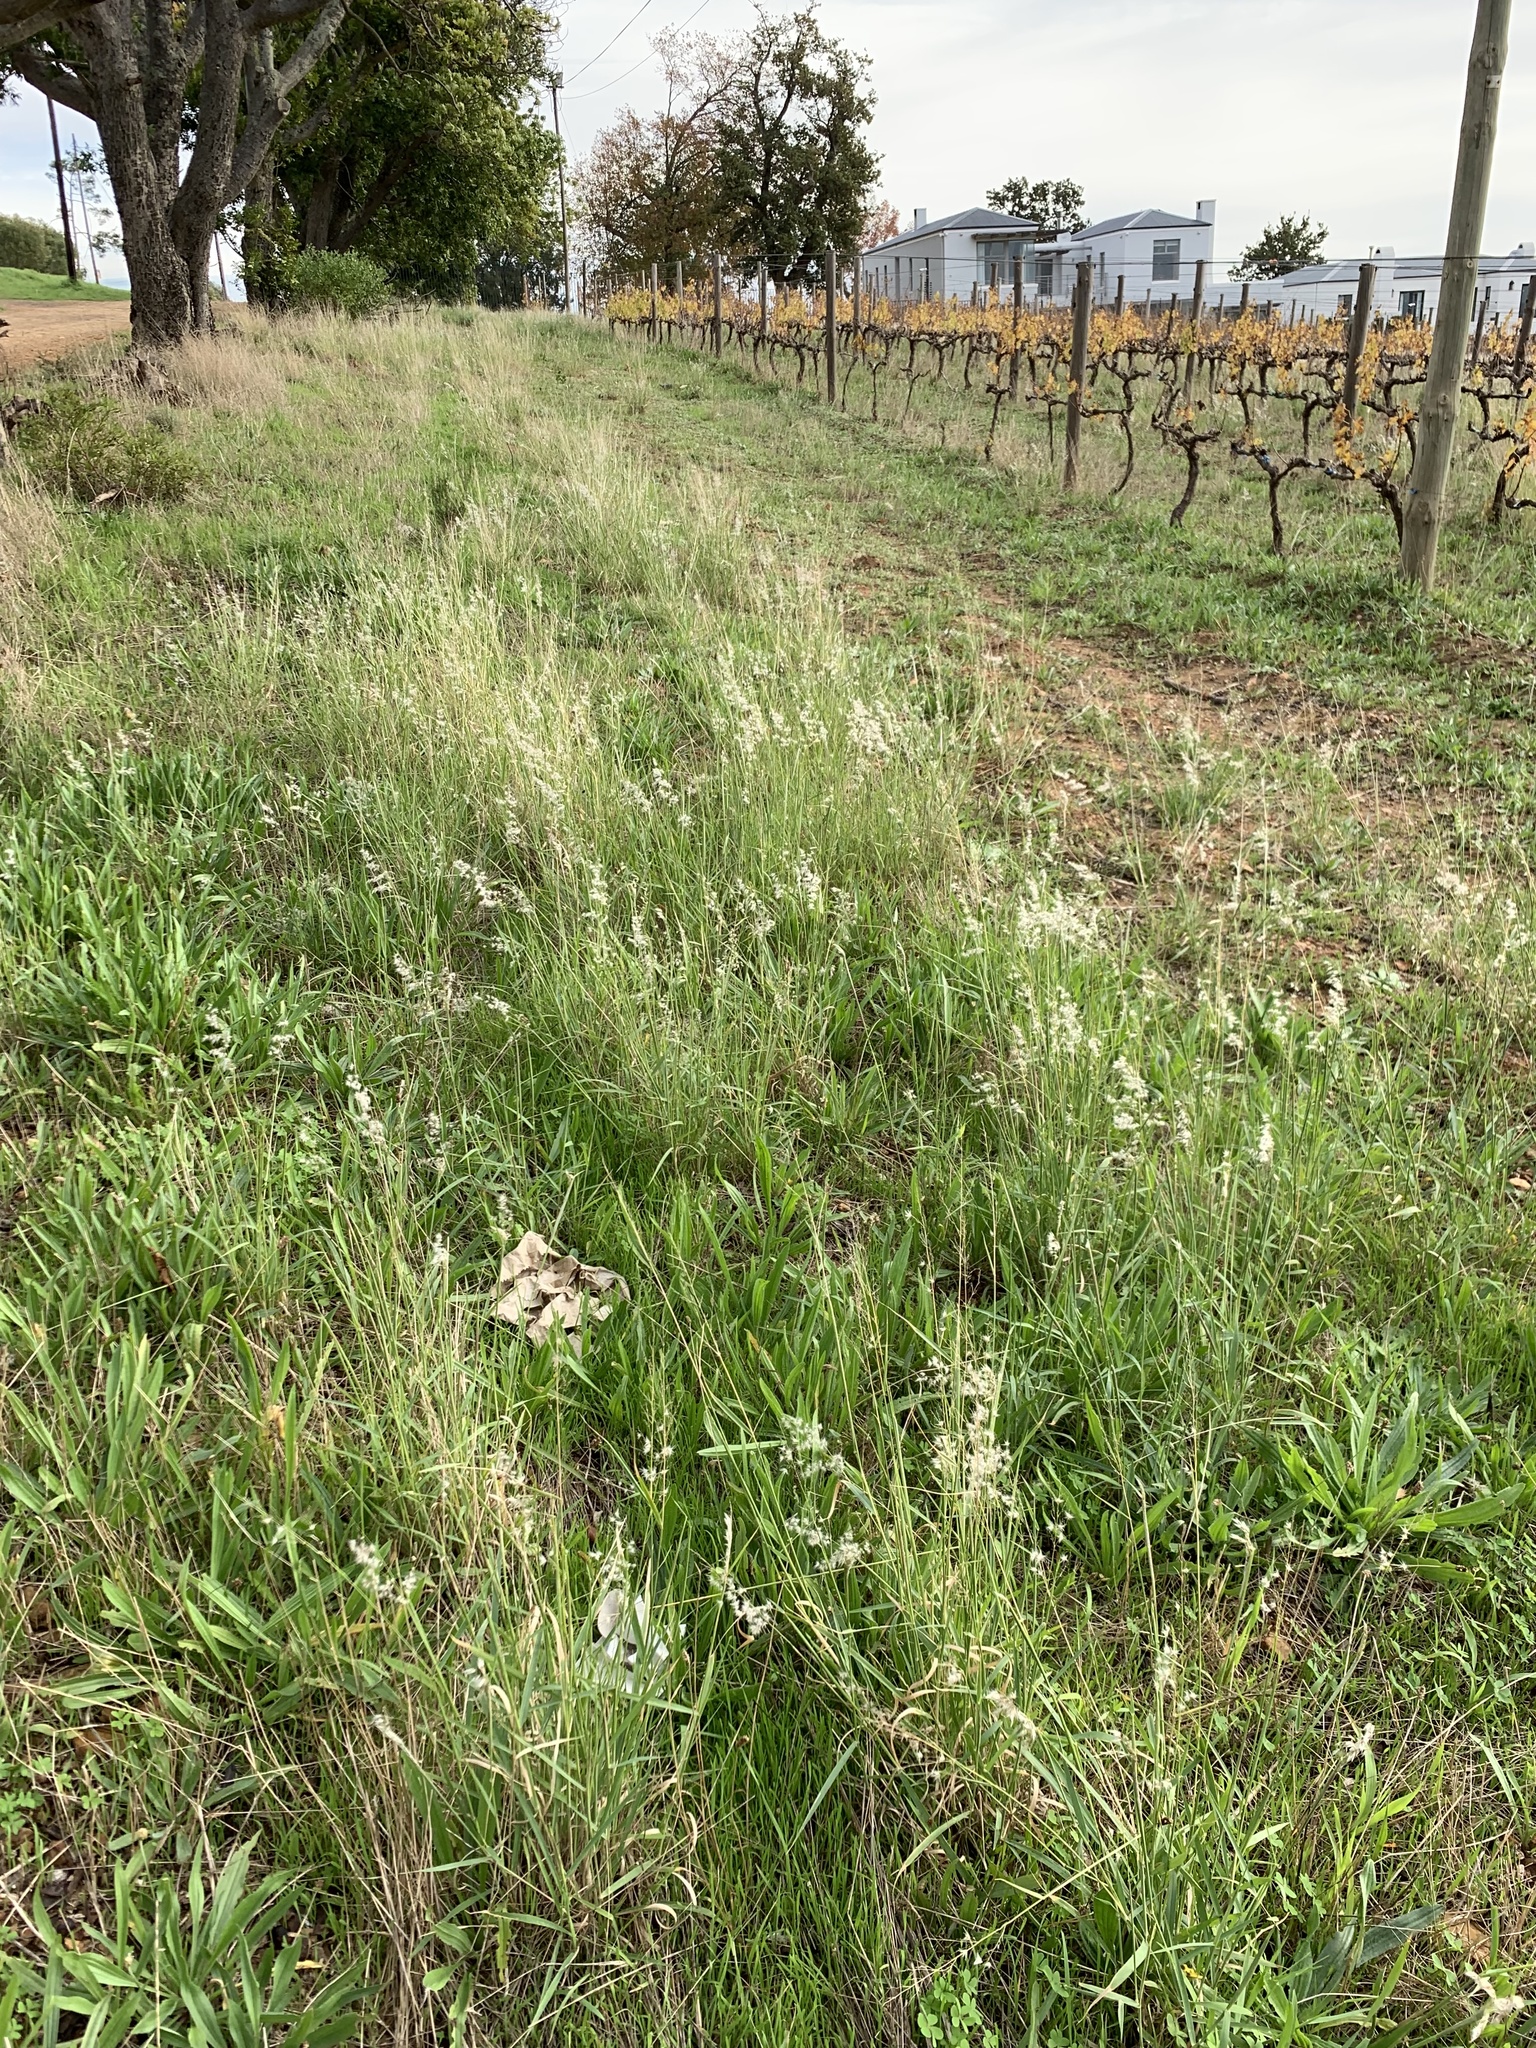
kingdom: Plantae
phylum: Tracheophyta
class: Liliopsida
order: Poales
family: Poaceae
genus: Melinis
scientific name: Melinis repens
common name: Rose natal grass
